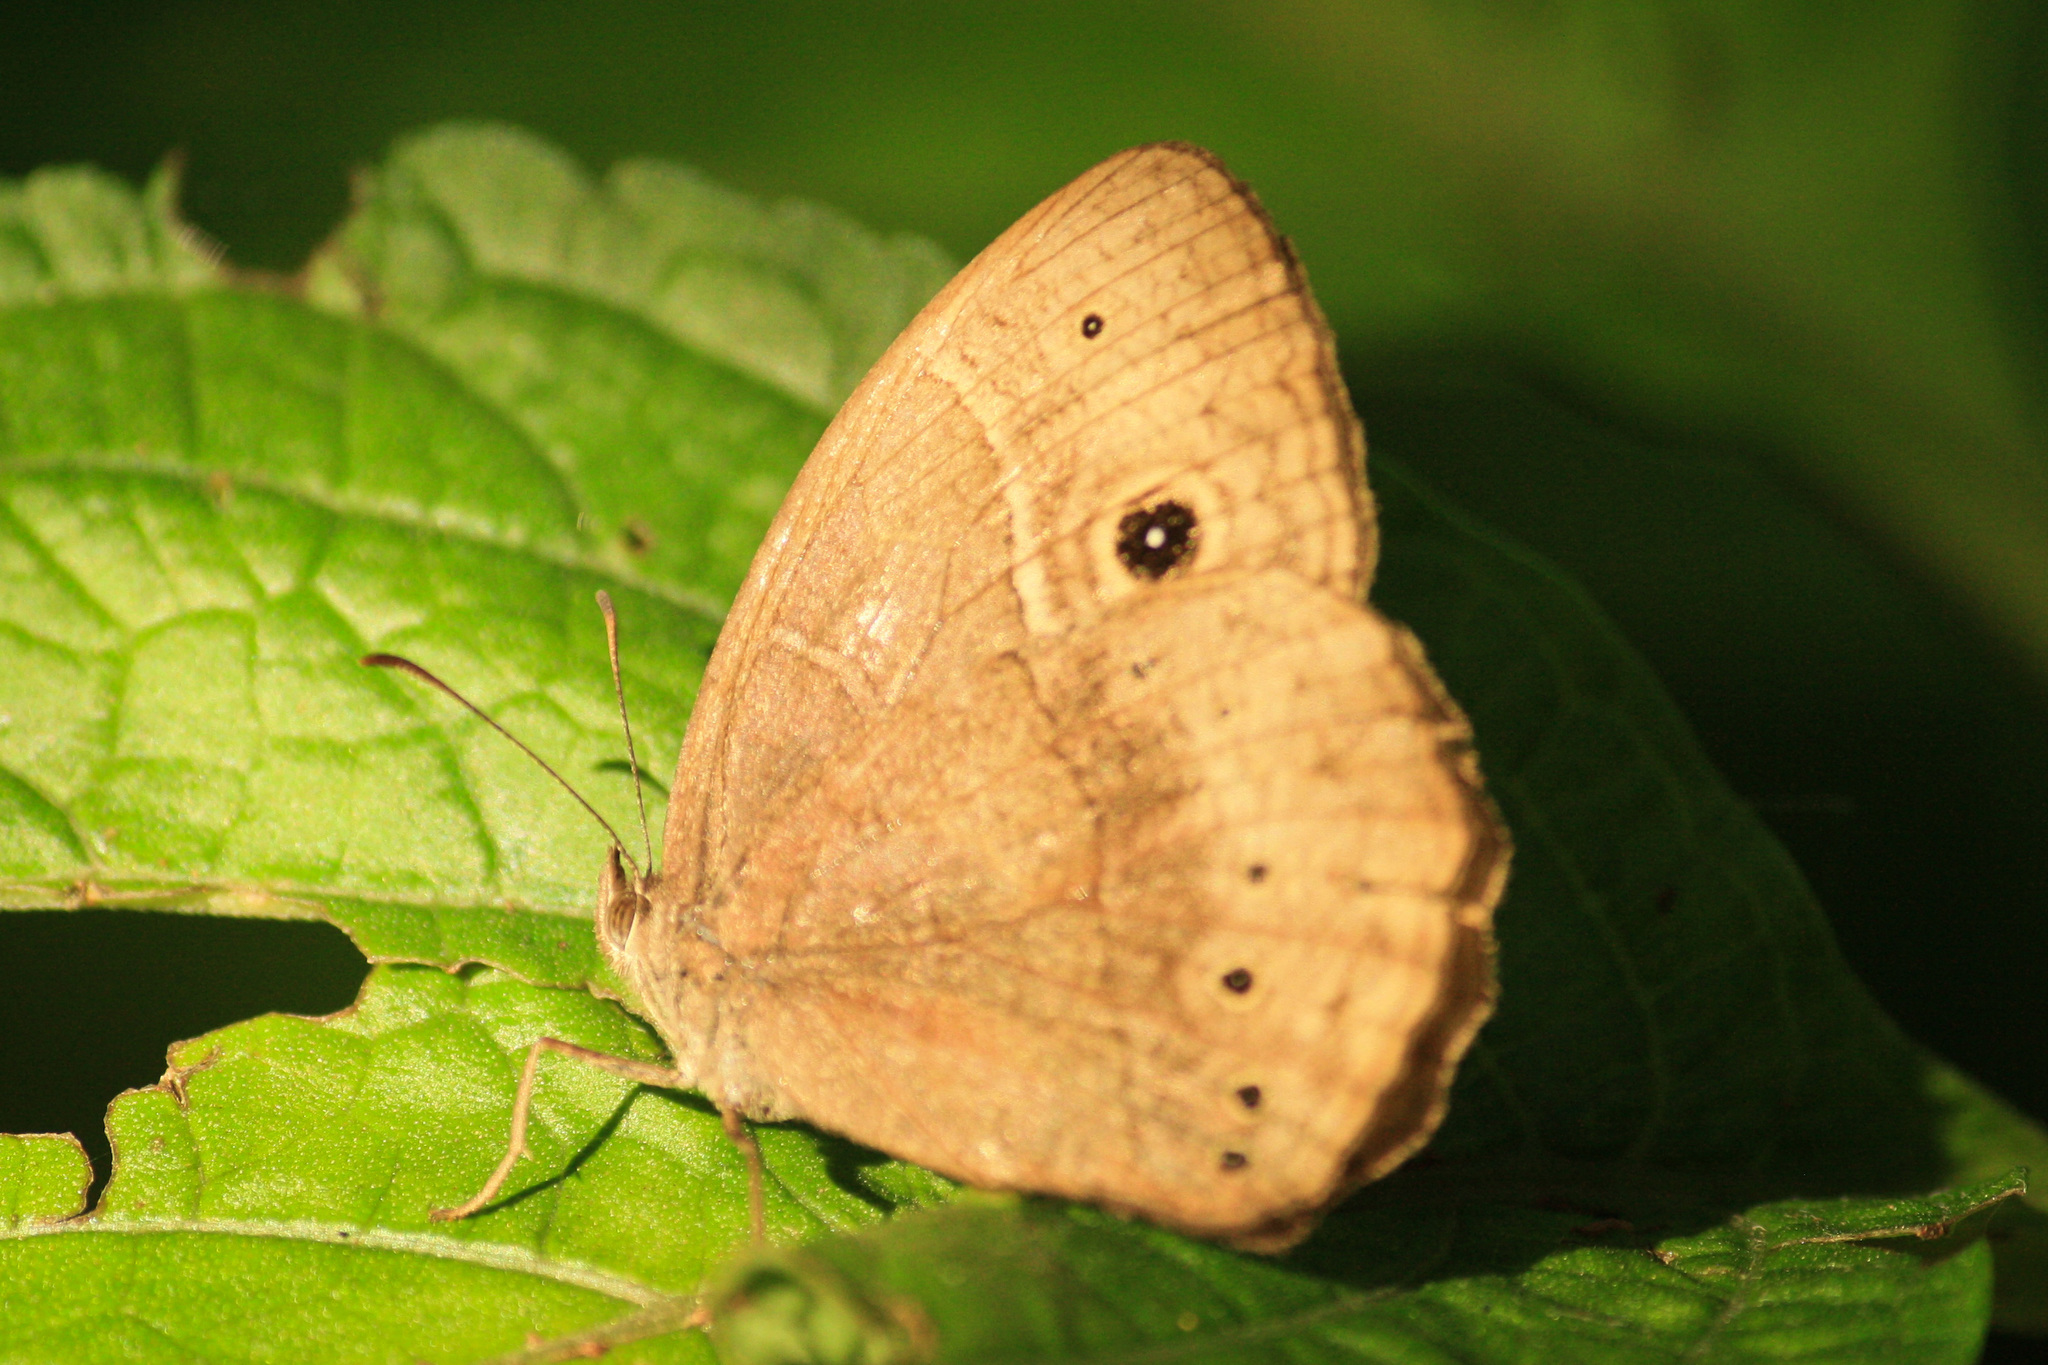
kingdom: Animalia
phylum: Arthropoda
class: Insecta
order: Lepidoptera
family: Nymphalidae
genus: Mycalesis
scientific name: Mycalesis rhacotis
